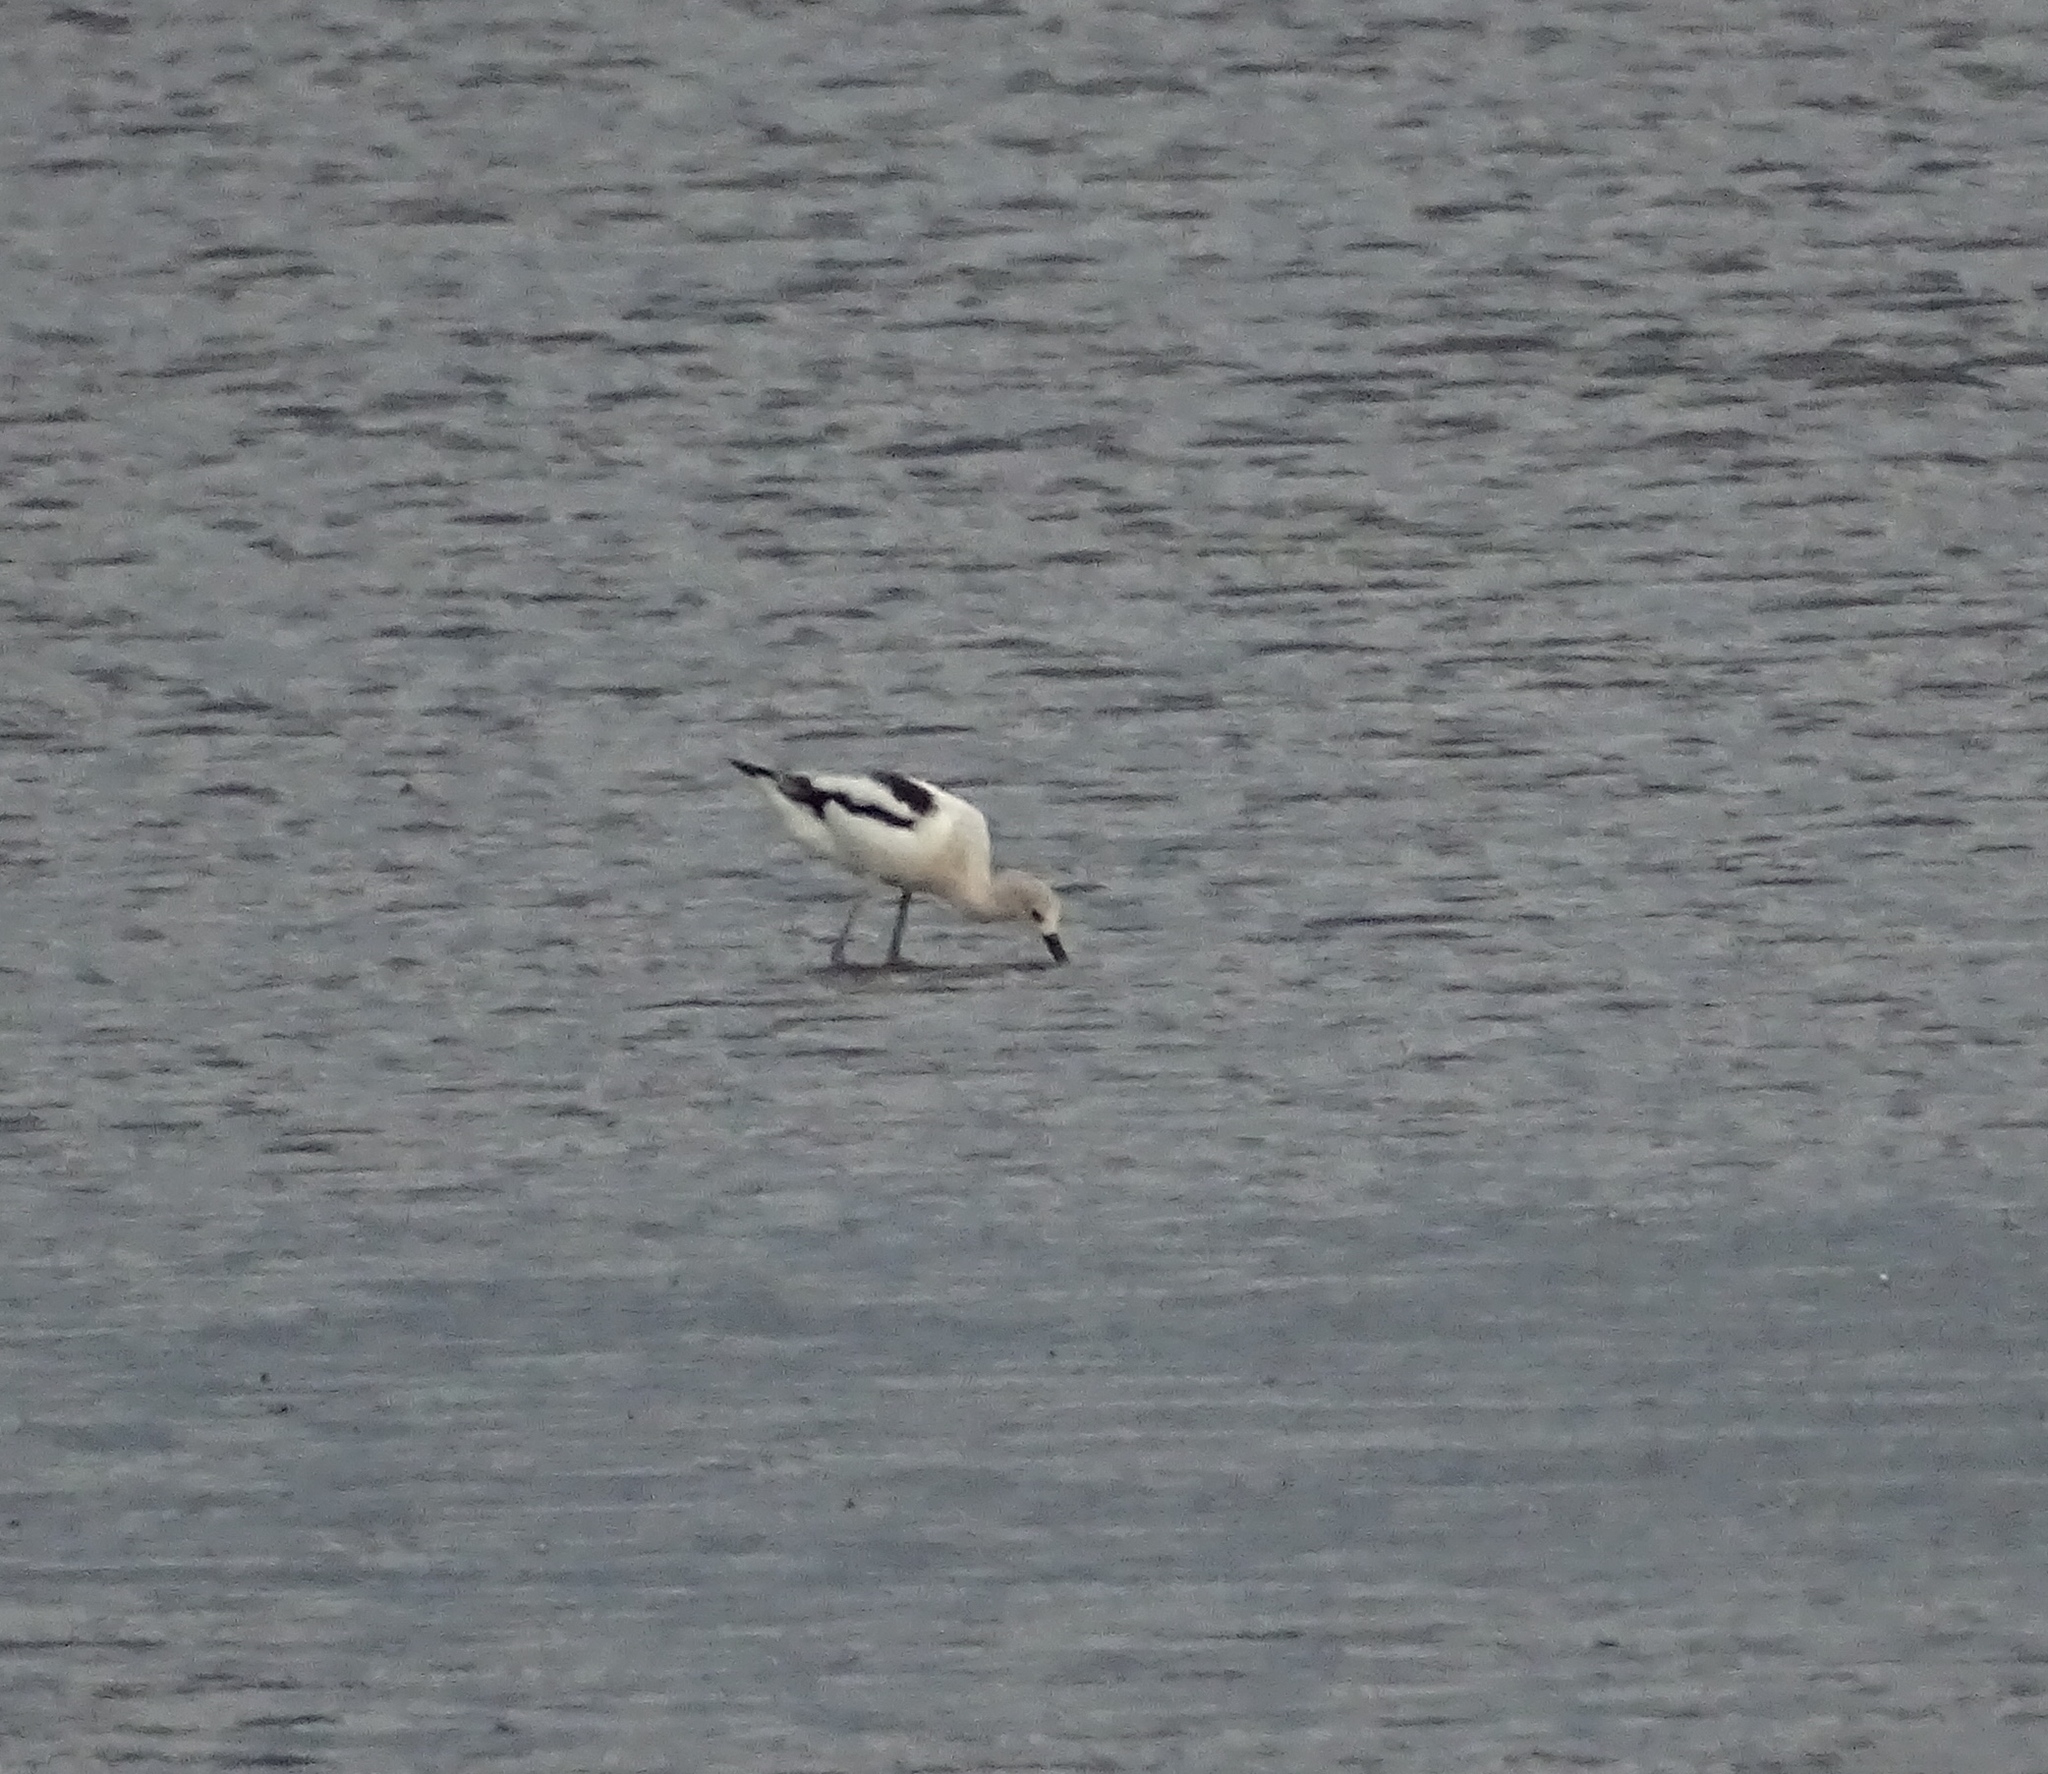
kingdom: Animalia
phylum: Chordata
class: Aves
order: Charadriiformes
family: Recurvirostridae
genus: Recurvirostra
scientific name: Recurvirostra americana
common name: American avocet
